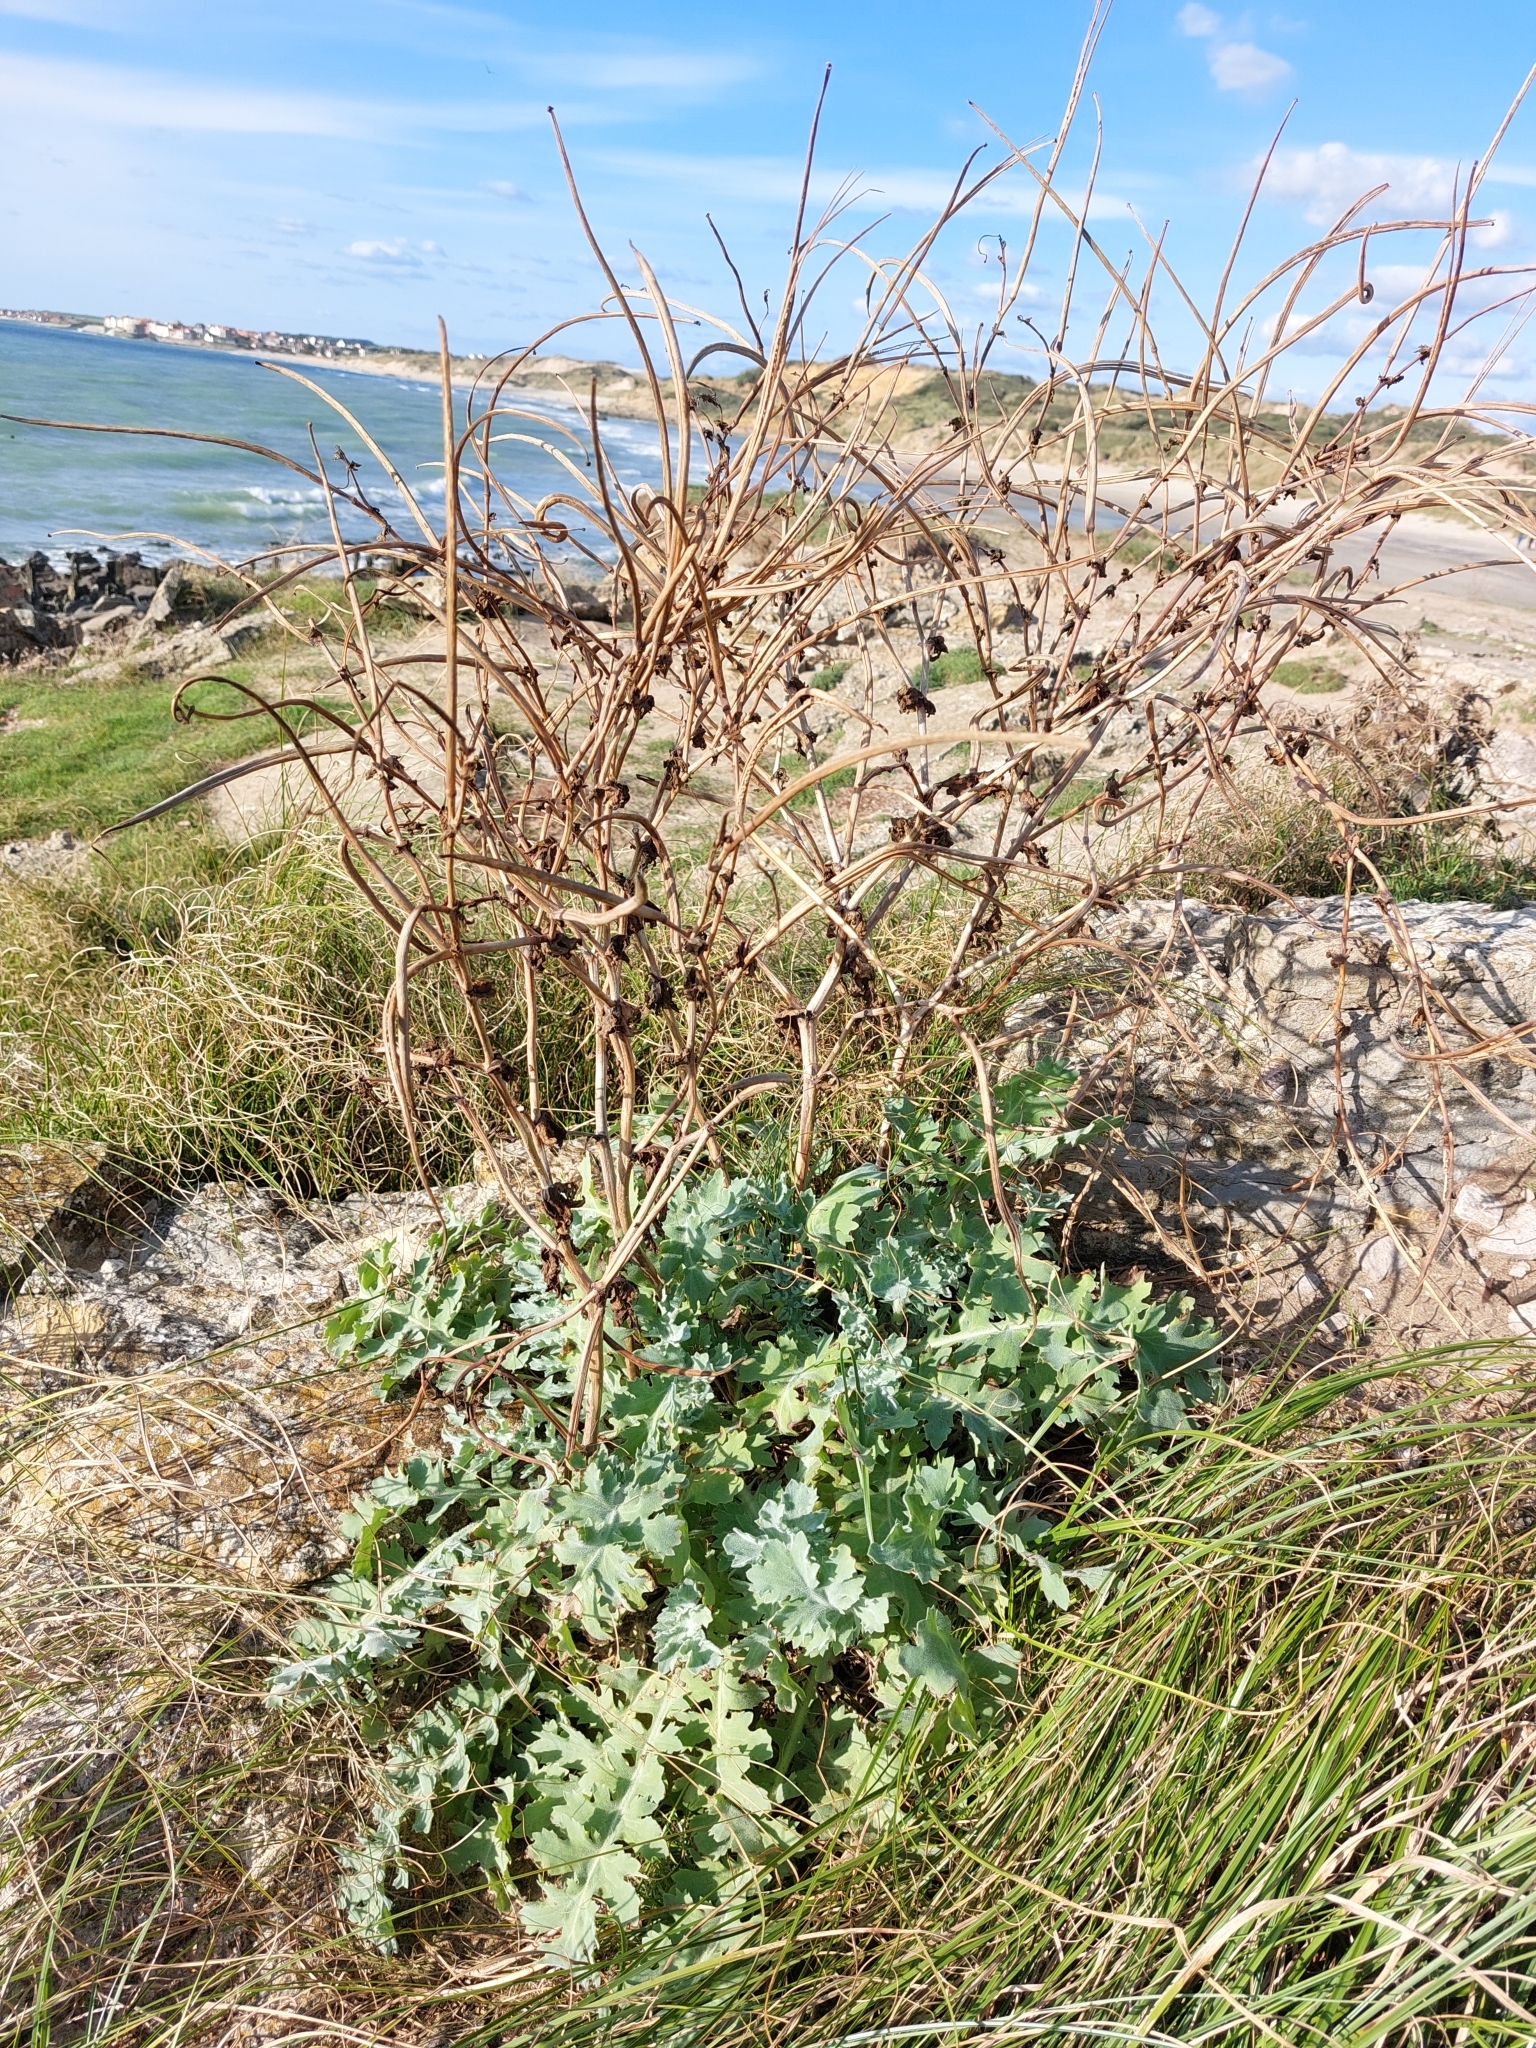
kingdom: Plantae
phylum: Tracheophyta
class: Magnoliopsida
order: Ranunculales
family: Papaveraceae
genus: Glaucium
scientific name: Glaucium flavum
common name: Yellow horned-poppy
